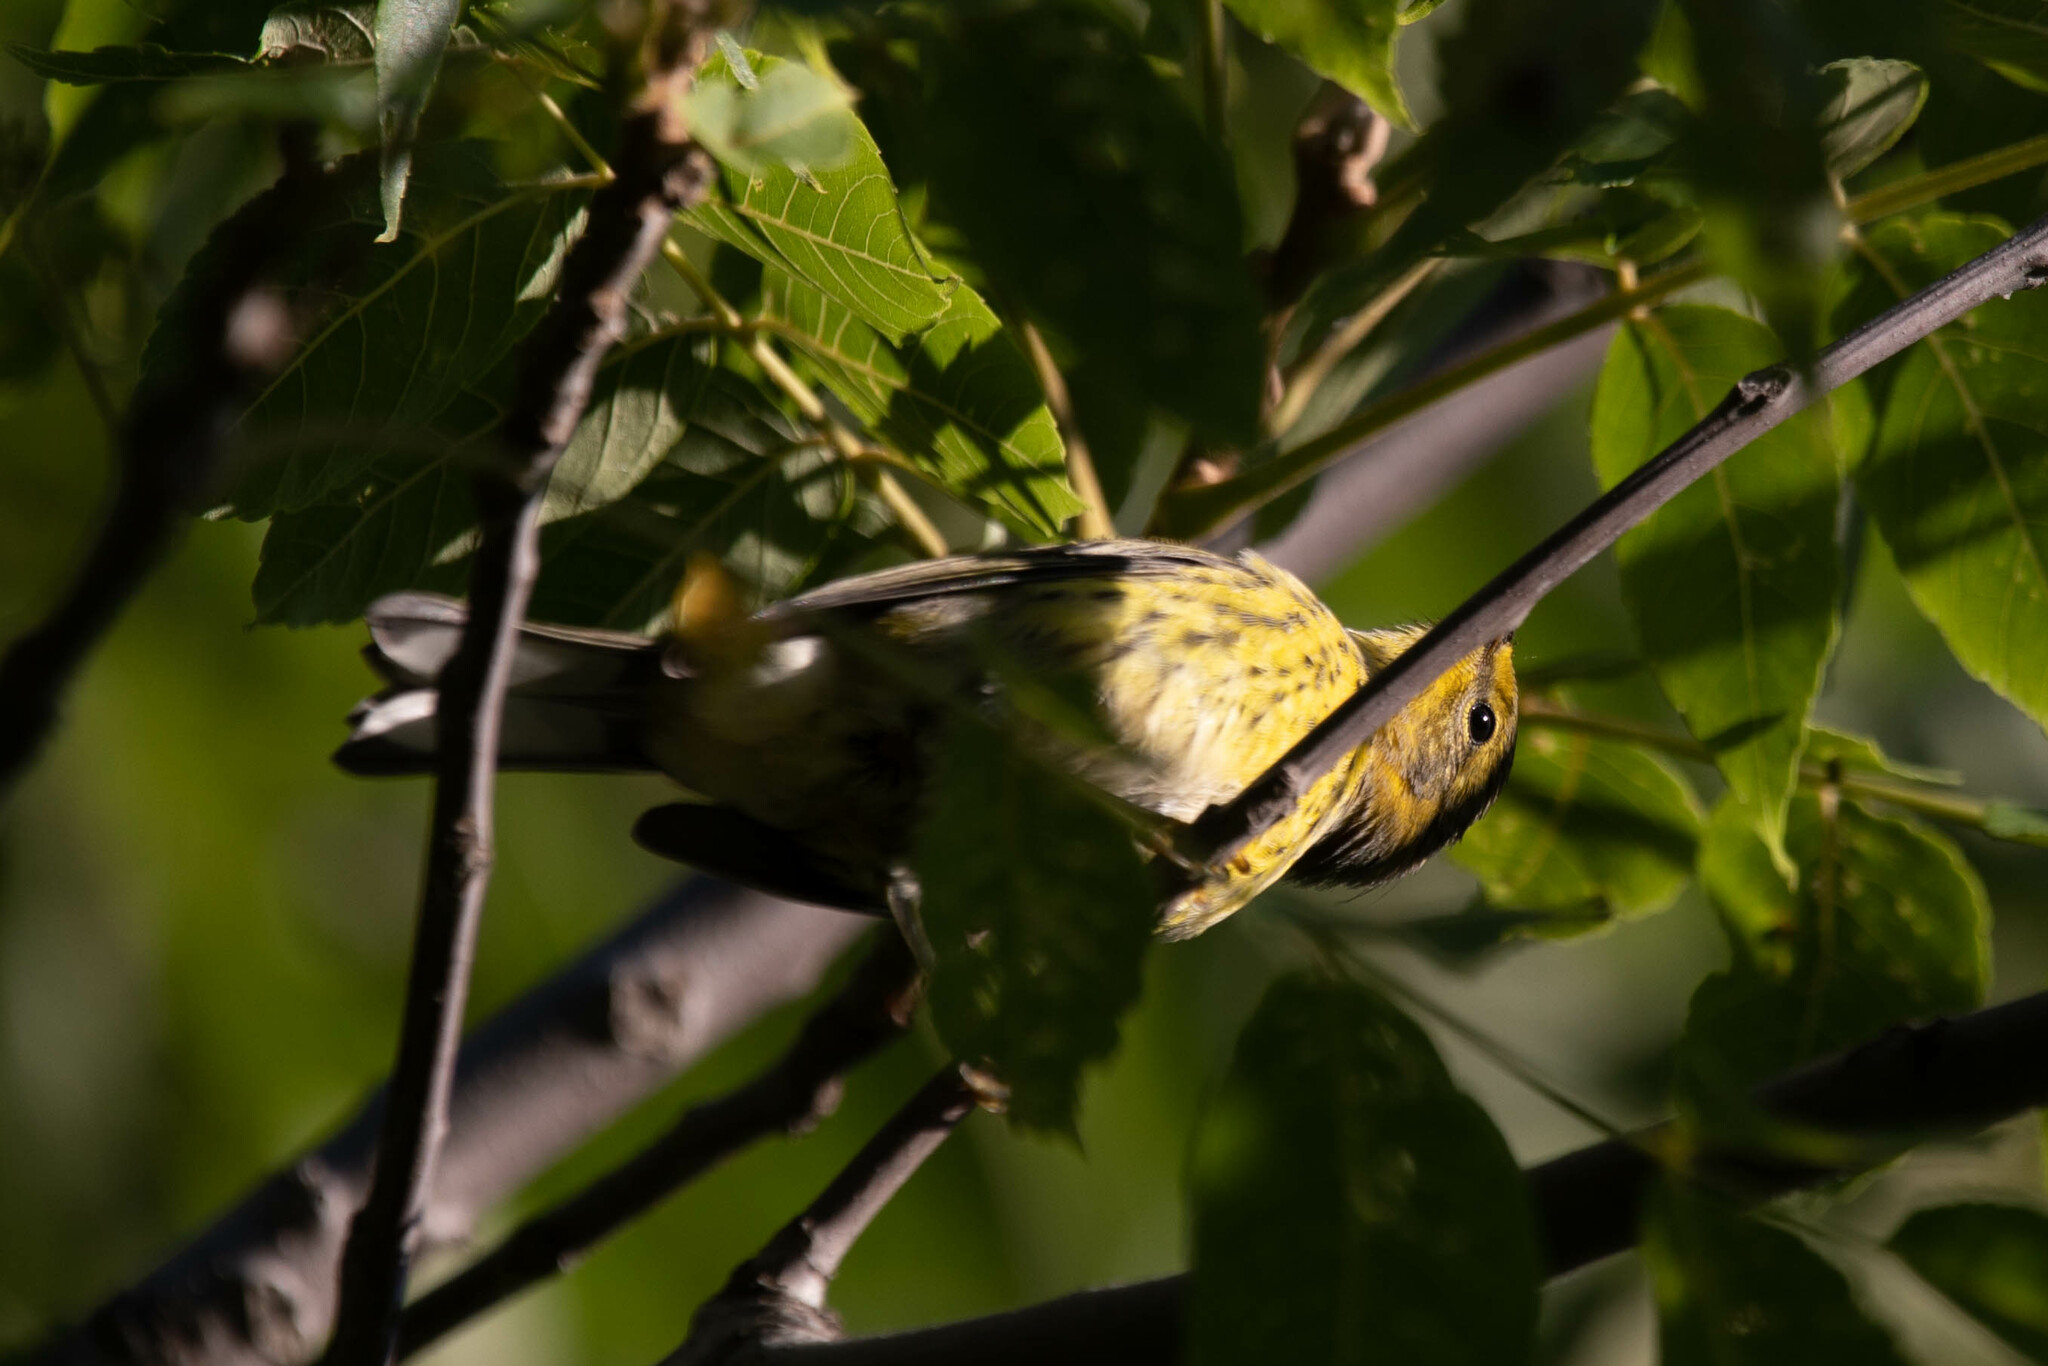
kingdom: Animalia
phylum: Chordata
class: Aves
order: Passeriformes
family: Parulidae
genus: Setophaga
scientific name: Setophaga tigrina
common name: Cape may warbler
